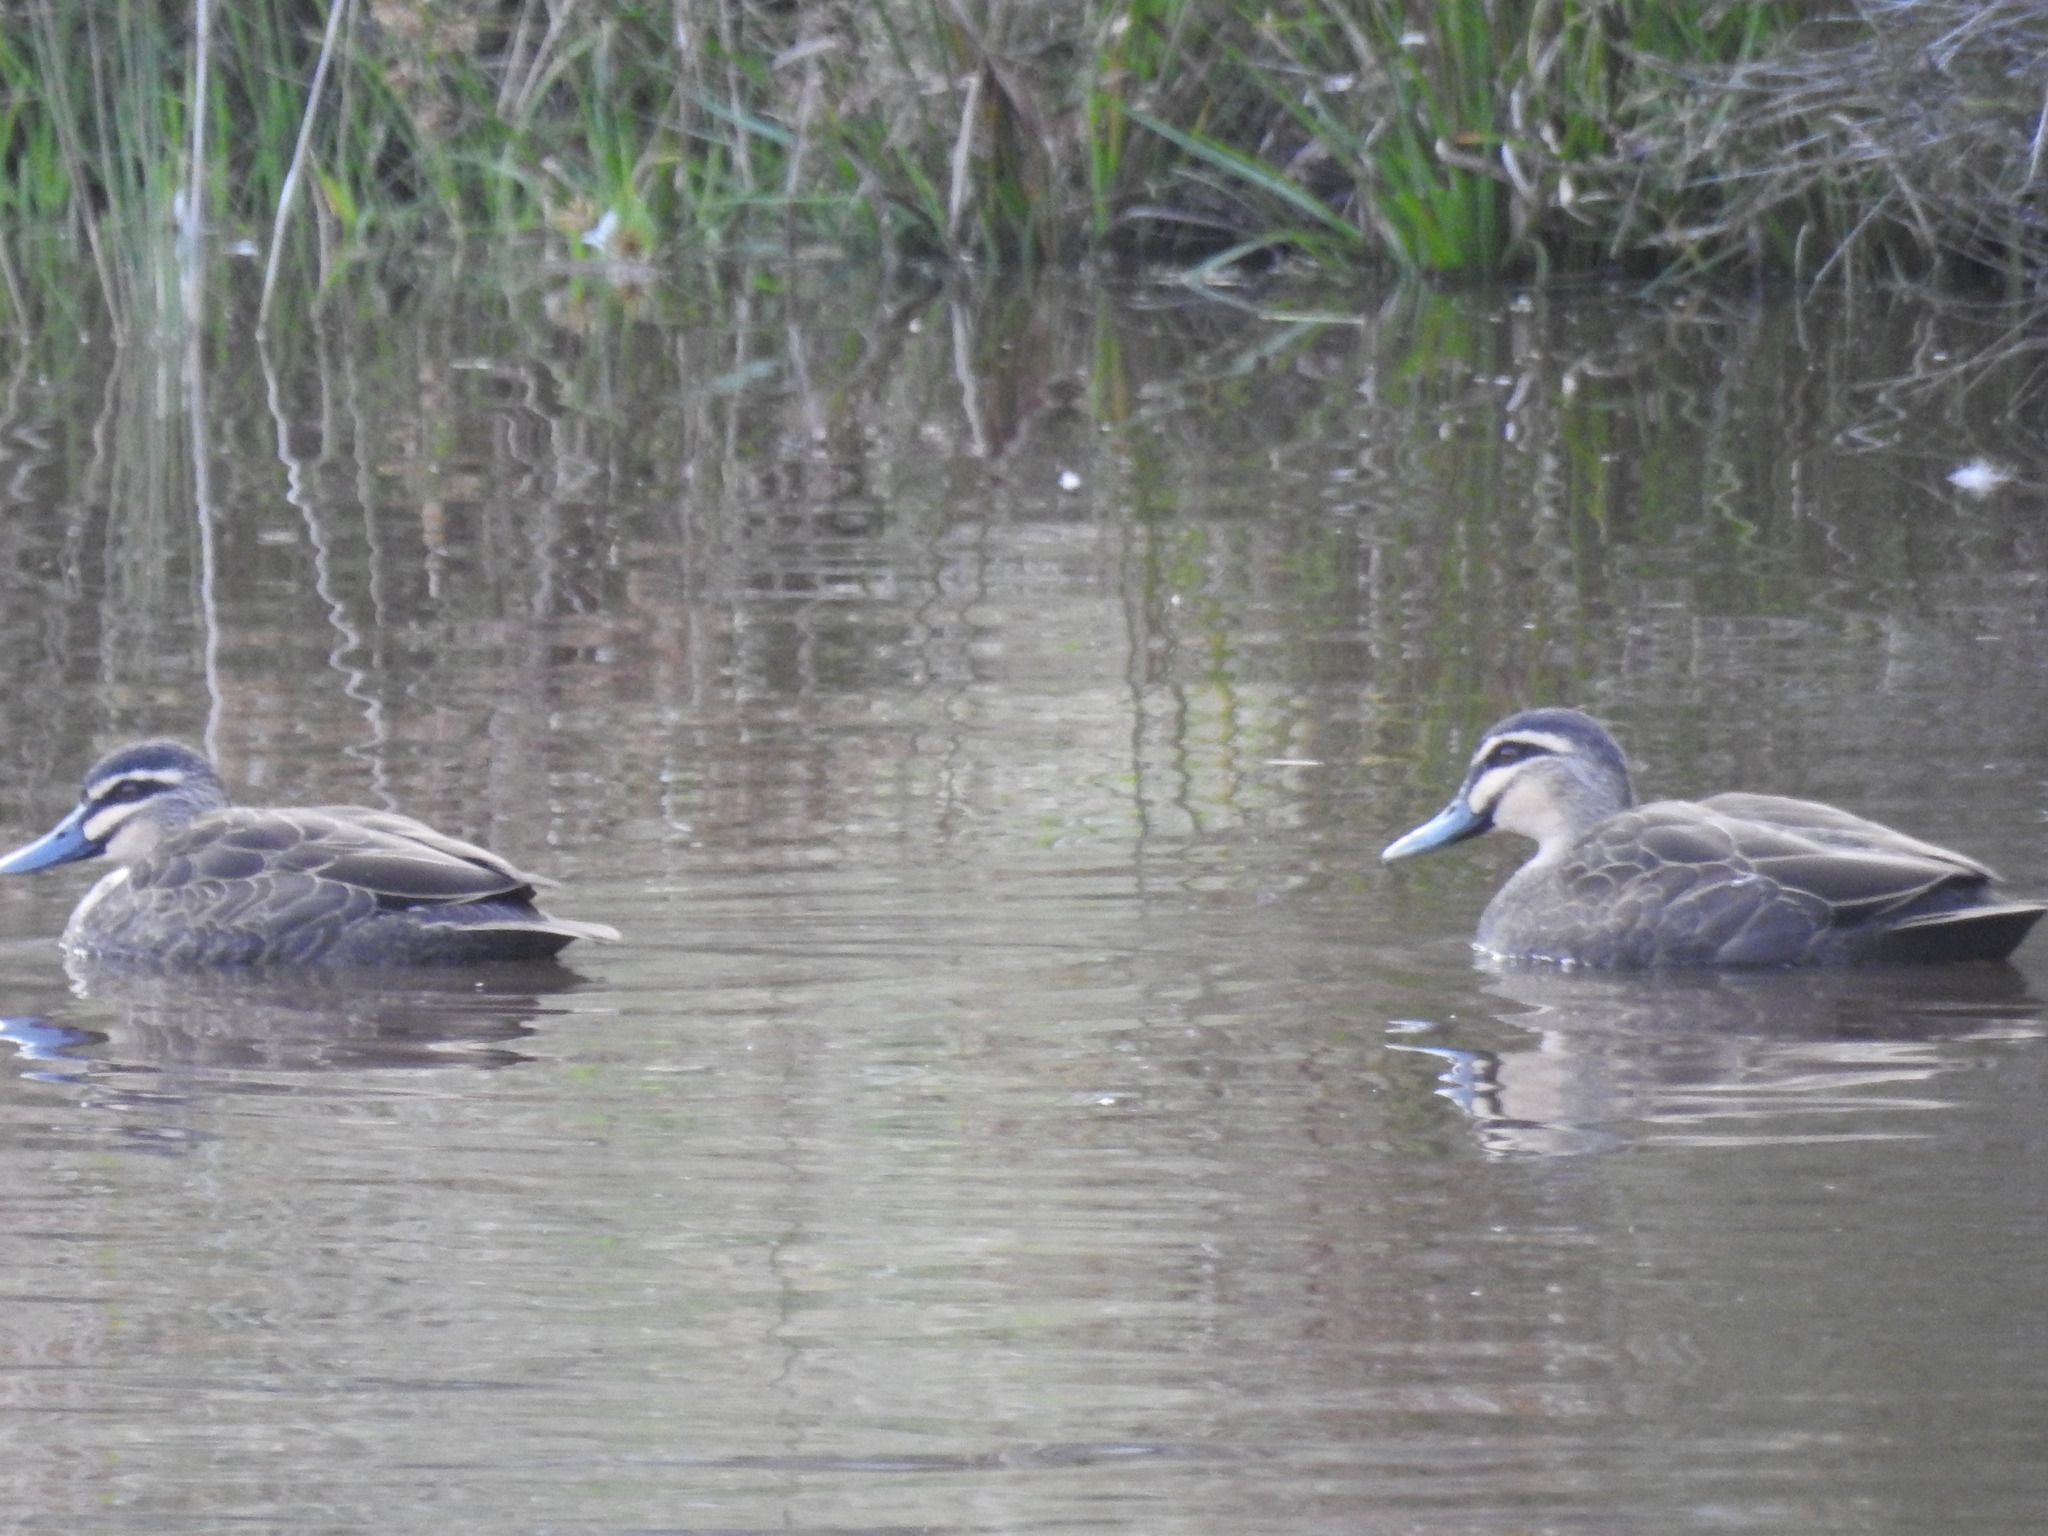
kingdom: Animalia
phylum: Chordata
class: Aves
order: Anseriformes
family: Anatidae
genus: Anas
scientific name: Anas superciliosa
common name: Pacific black duck
